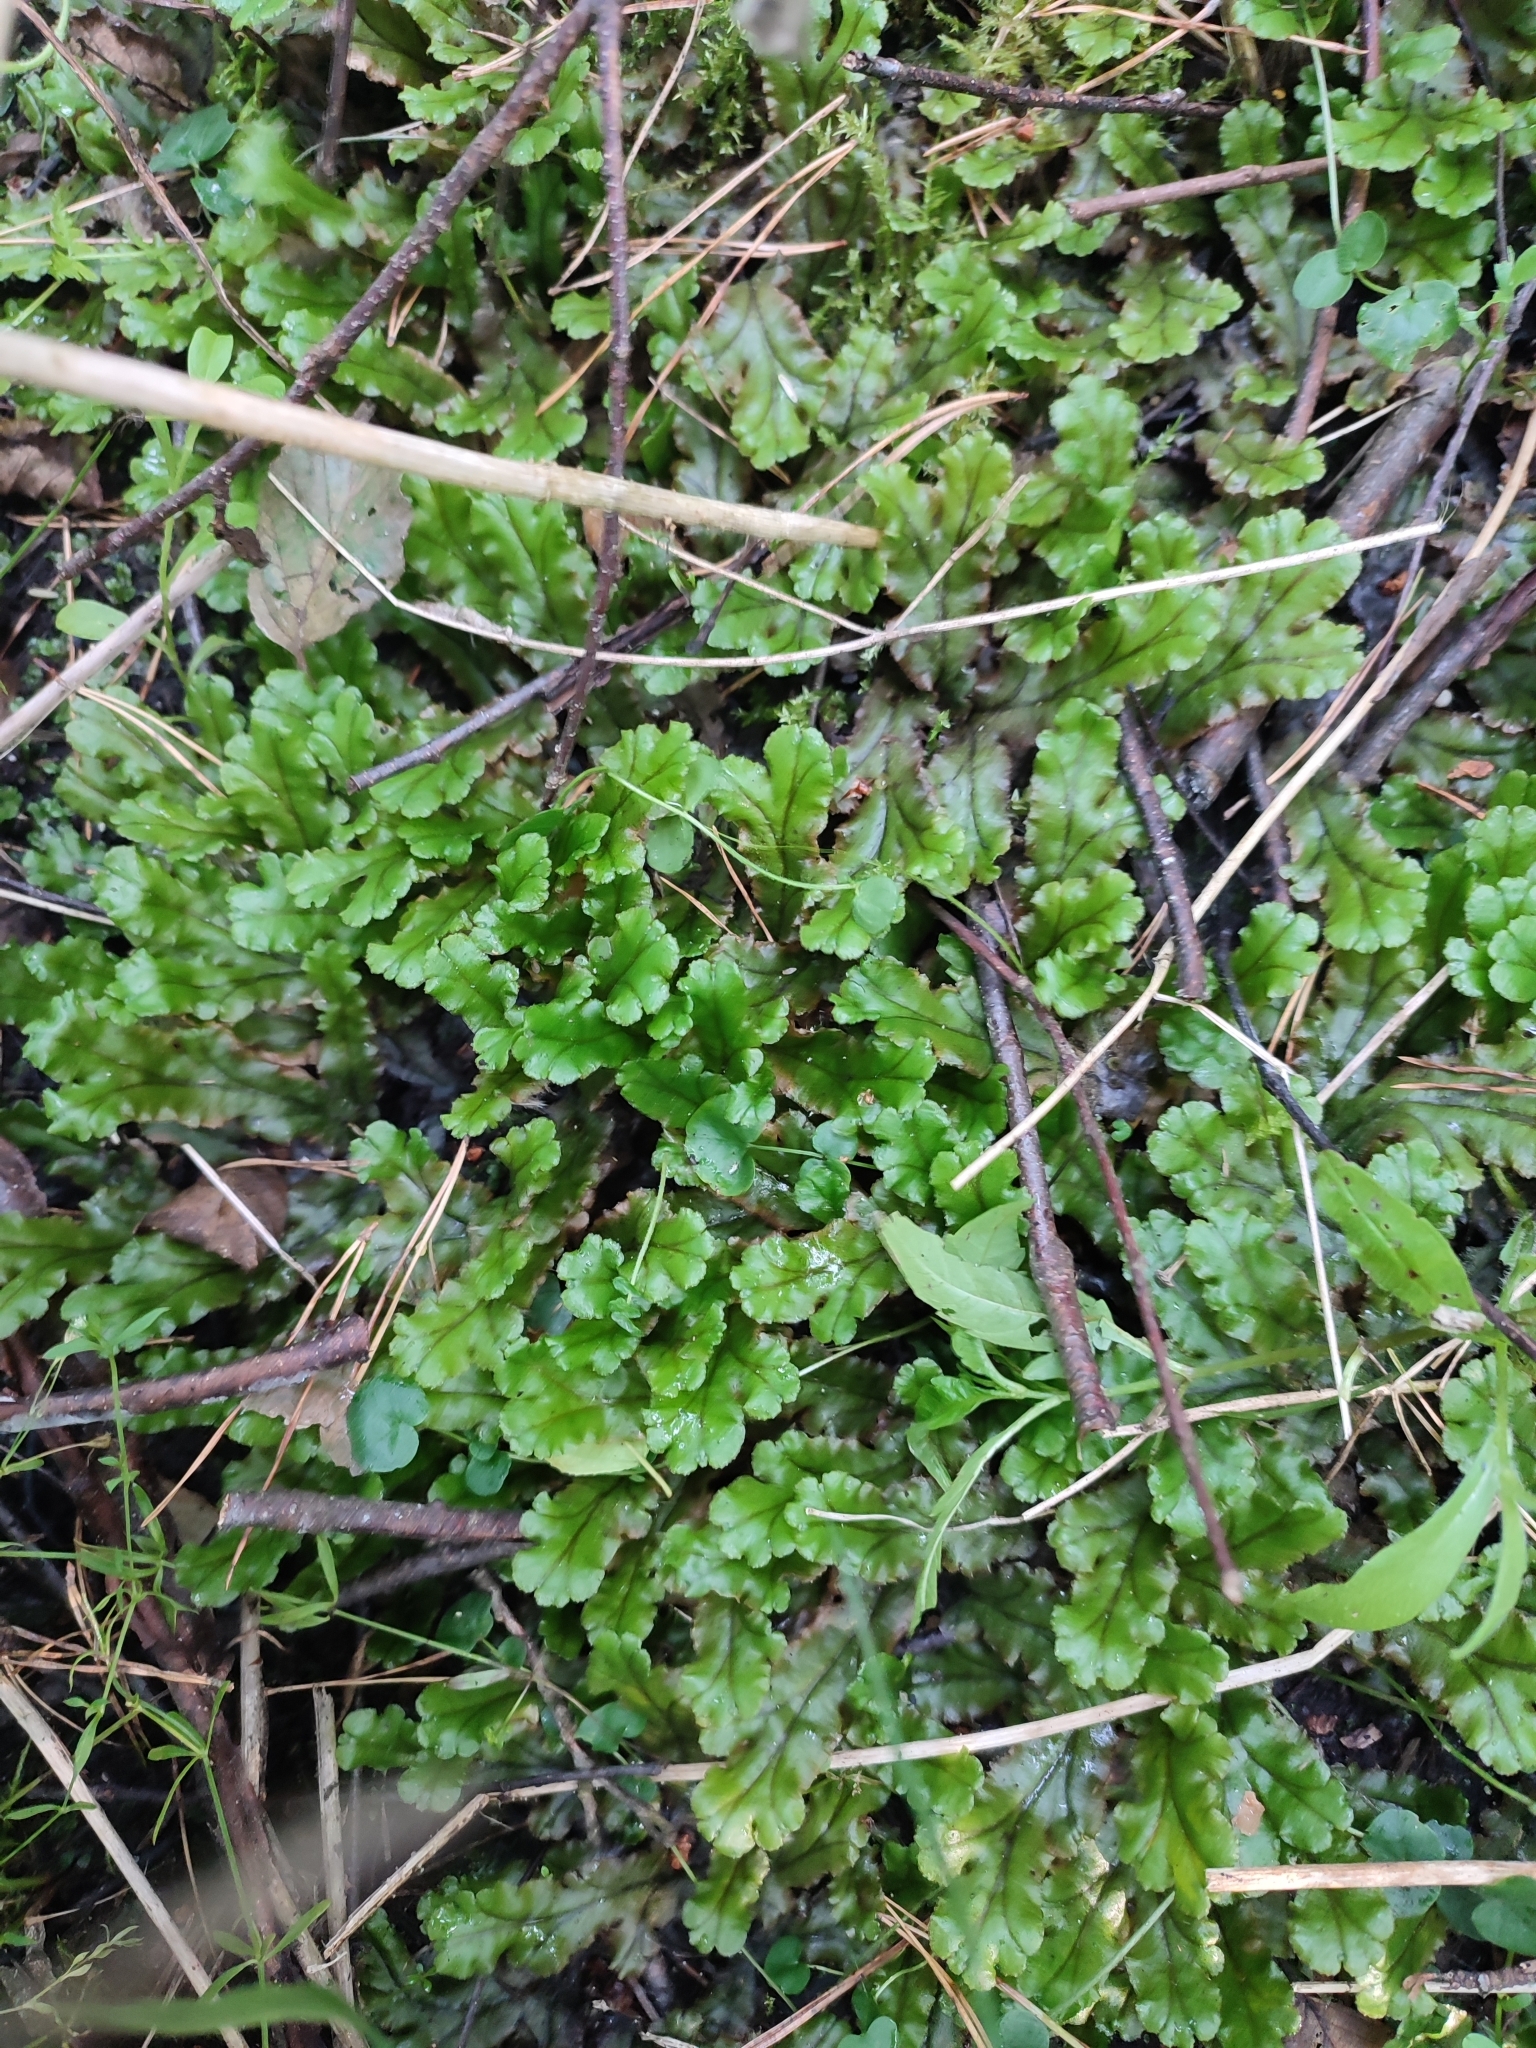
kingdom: Plantae
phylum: Marchantiophyta
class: Marchantiopsida
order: Marchantiales
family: Marchantiaceae
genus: Marchantia
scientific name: Marchantia polymorpha
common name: Common liverwort
